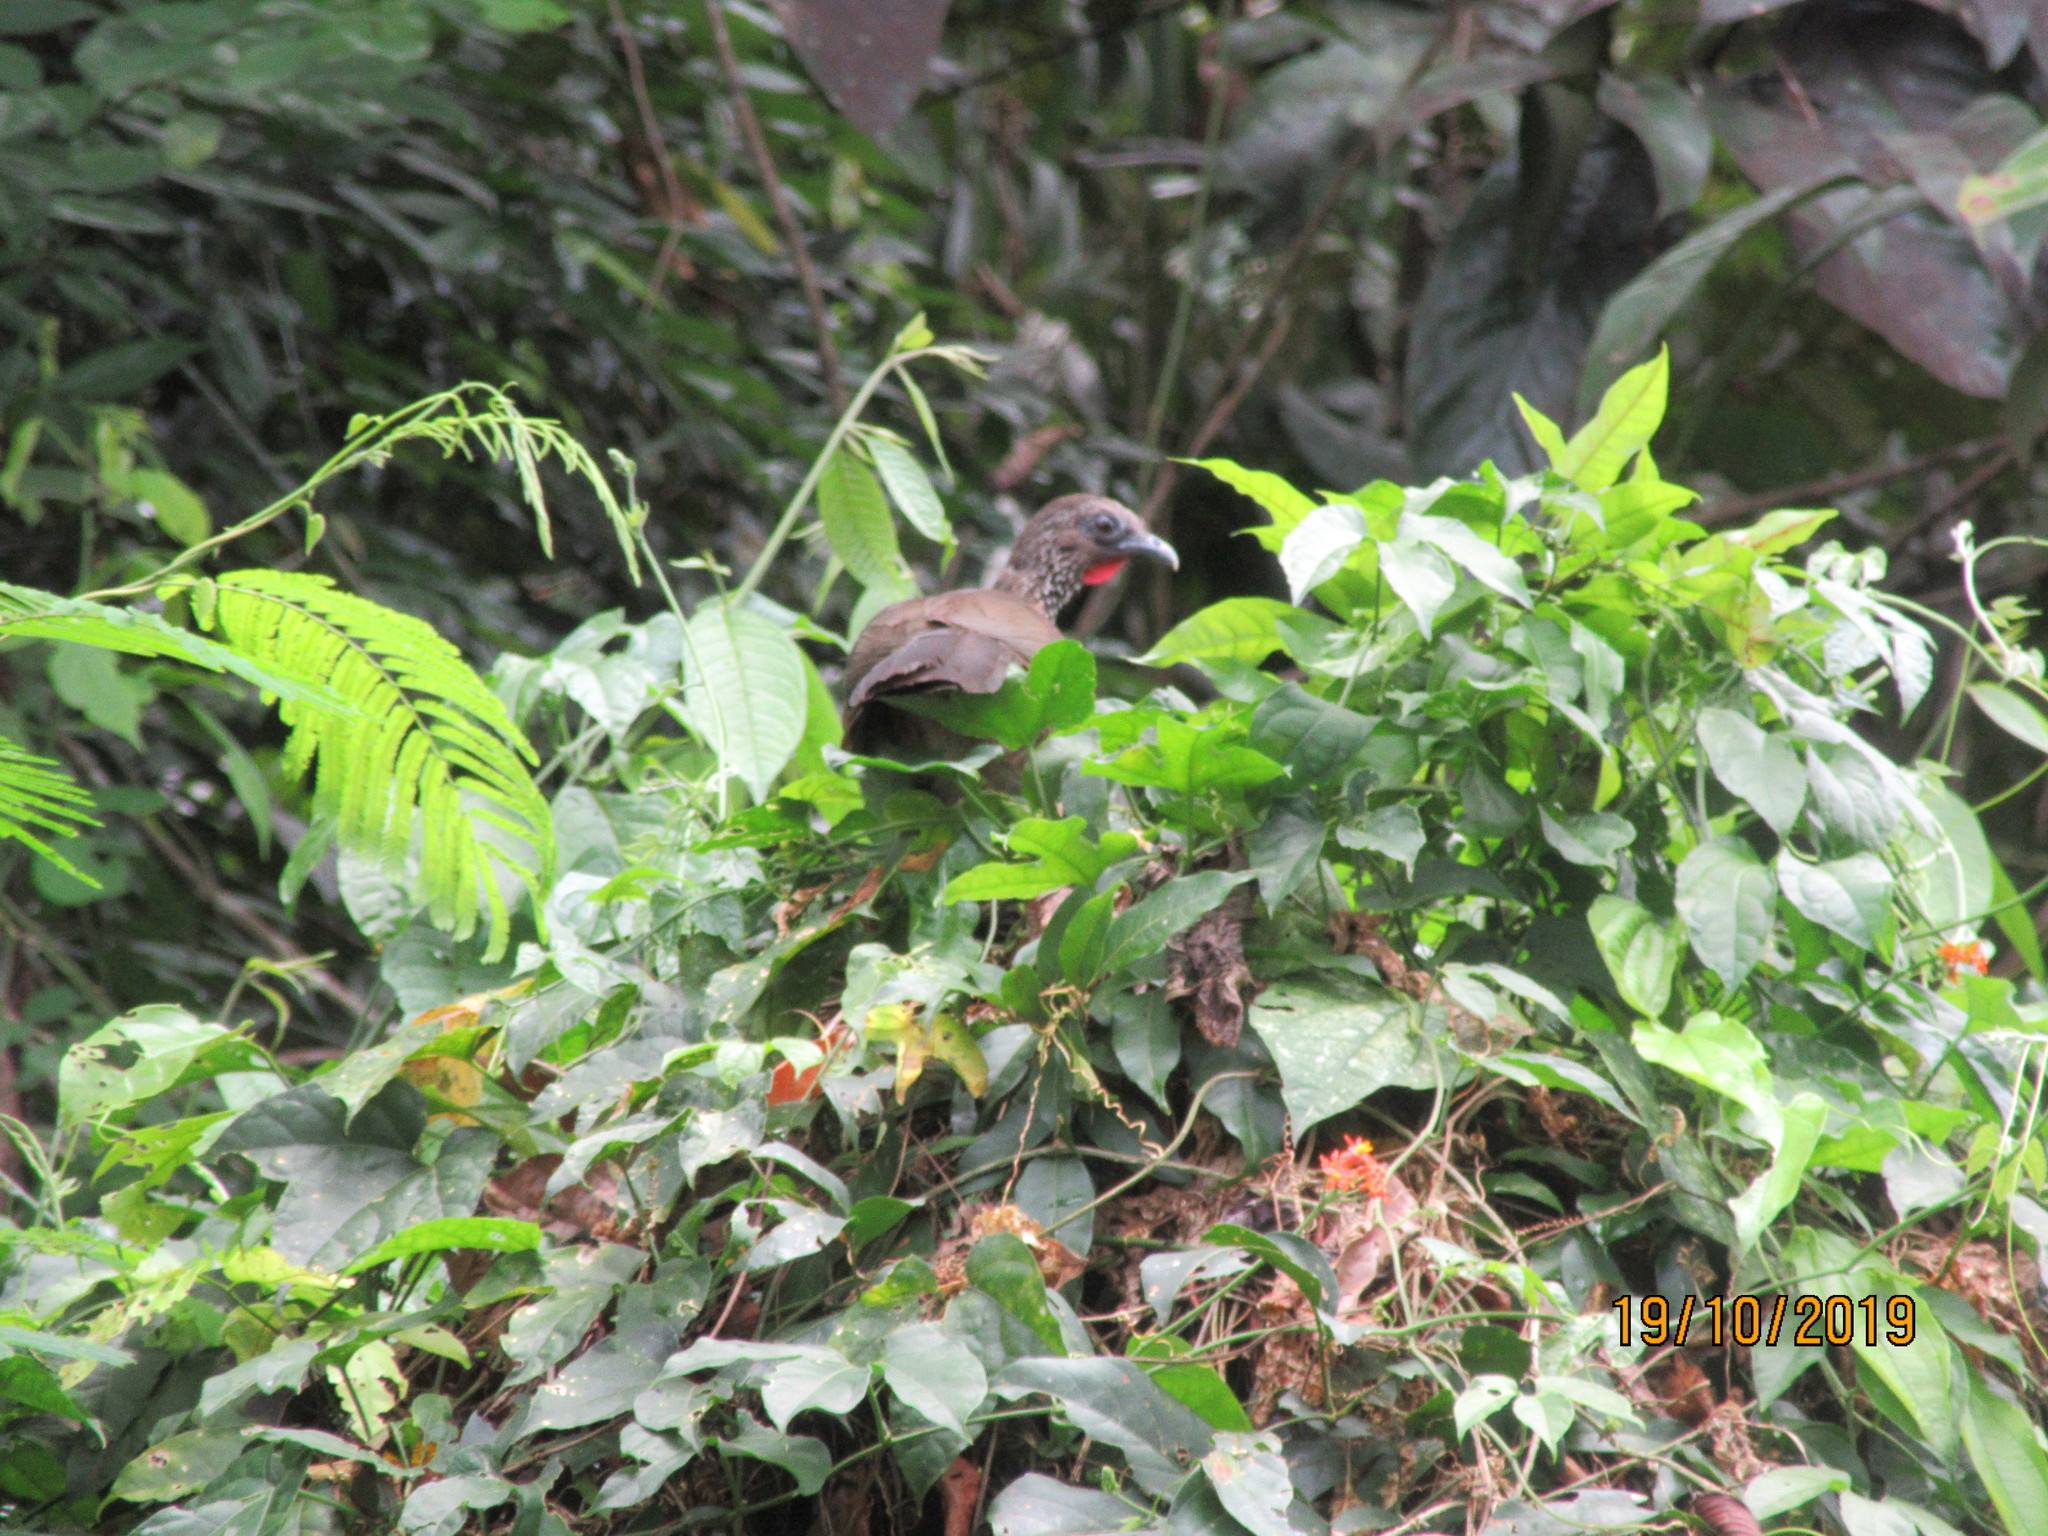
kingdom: Animalia
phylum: Chordata
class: Aves
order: Galliformes
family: Cracidae
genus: Ortalis
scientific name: Ortalis guttata
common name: Speckled chachalaca
